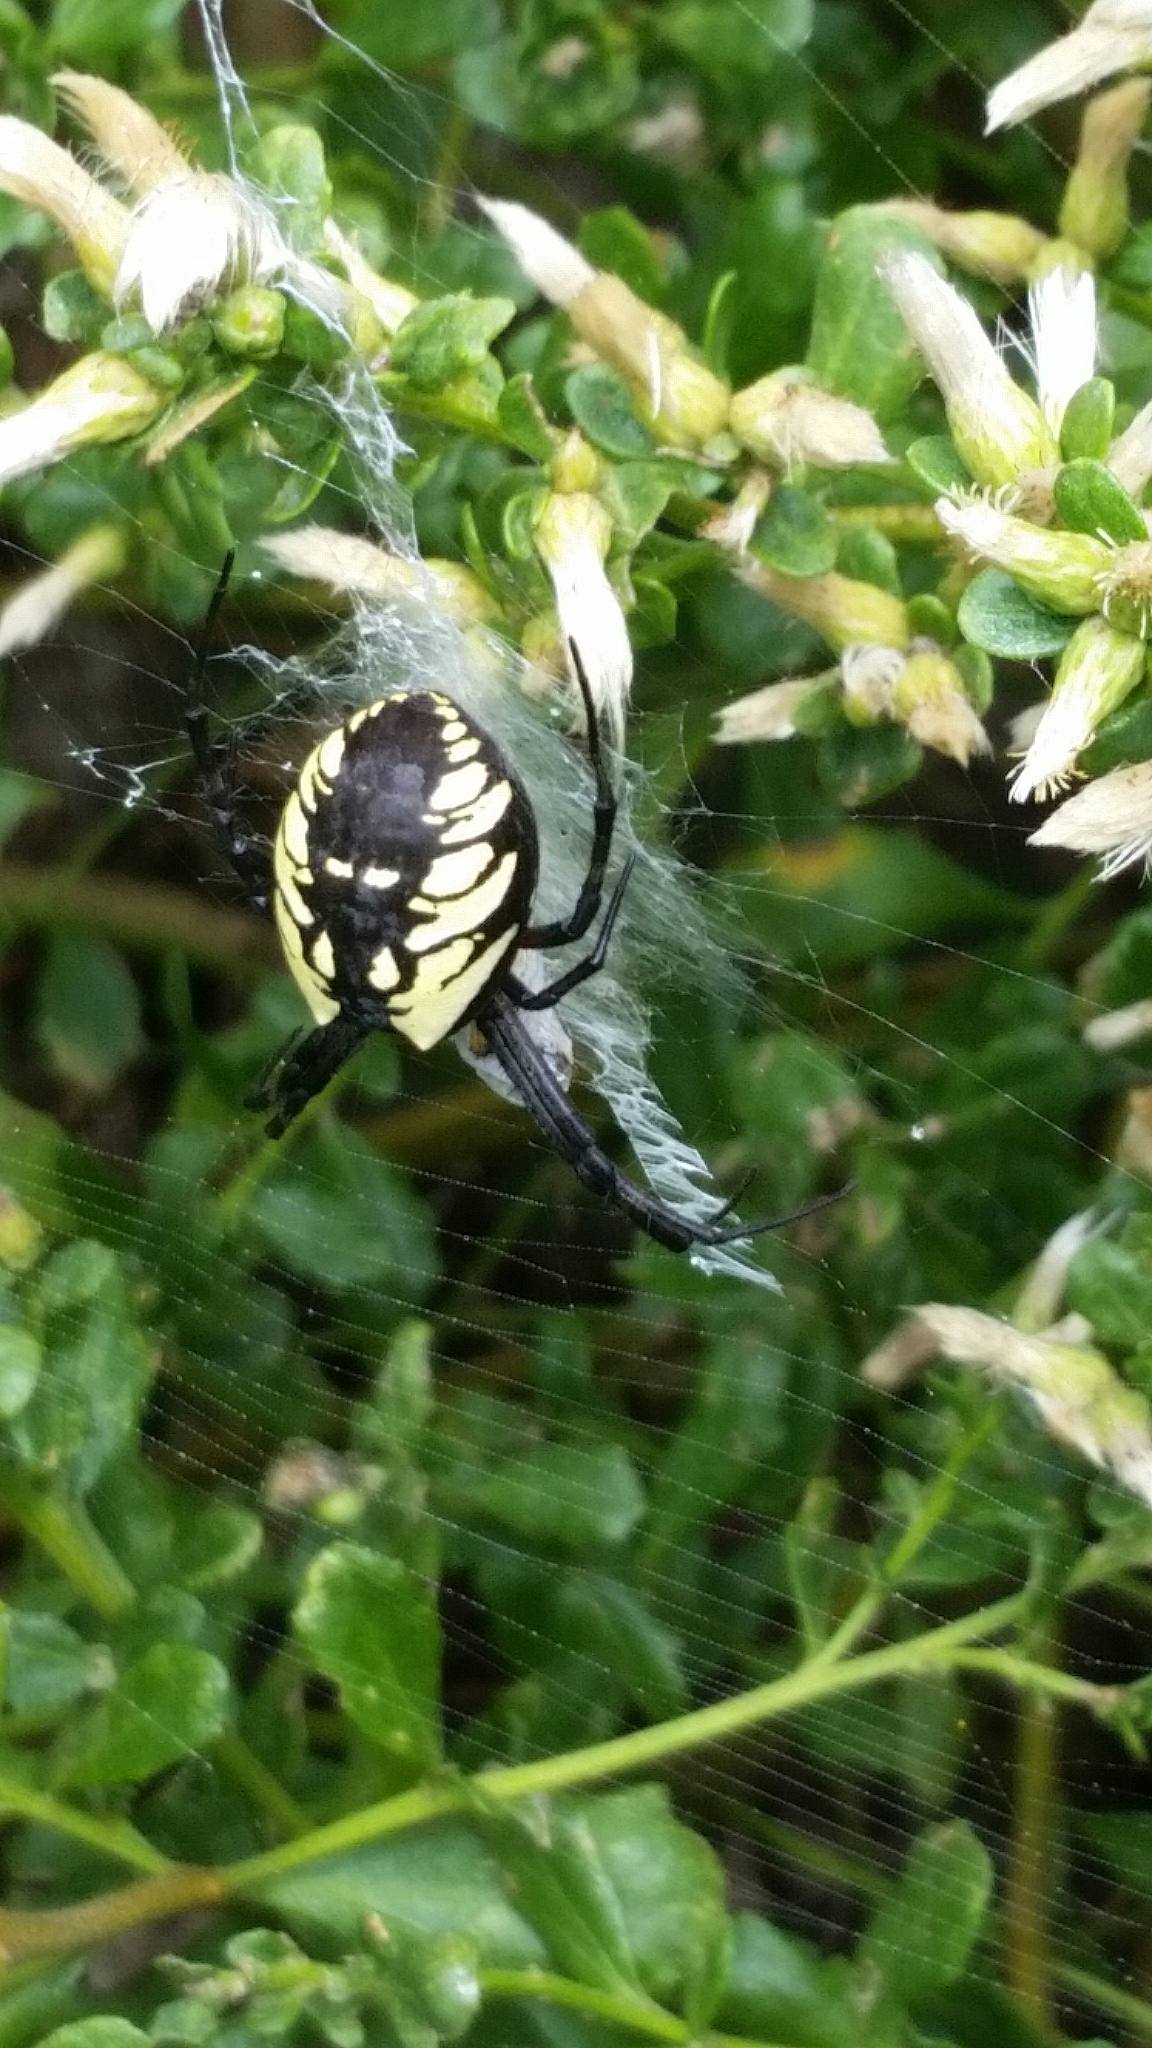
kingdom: Animalia
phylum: Arthropoda
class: Arachnida
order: Araneae
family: Araneidae
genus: Argiope
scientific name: Argiope aurantia
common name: Orb weavers
